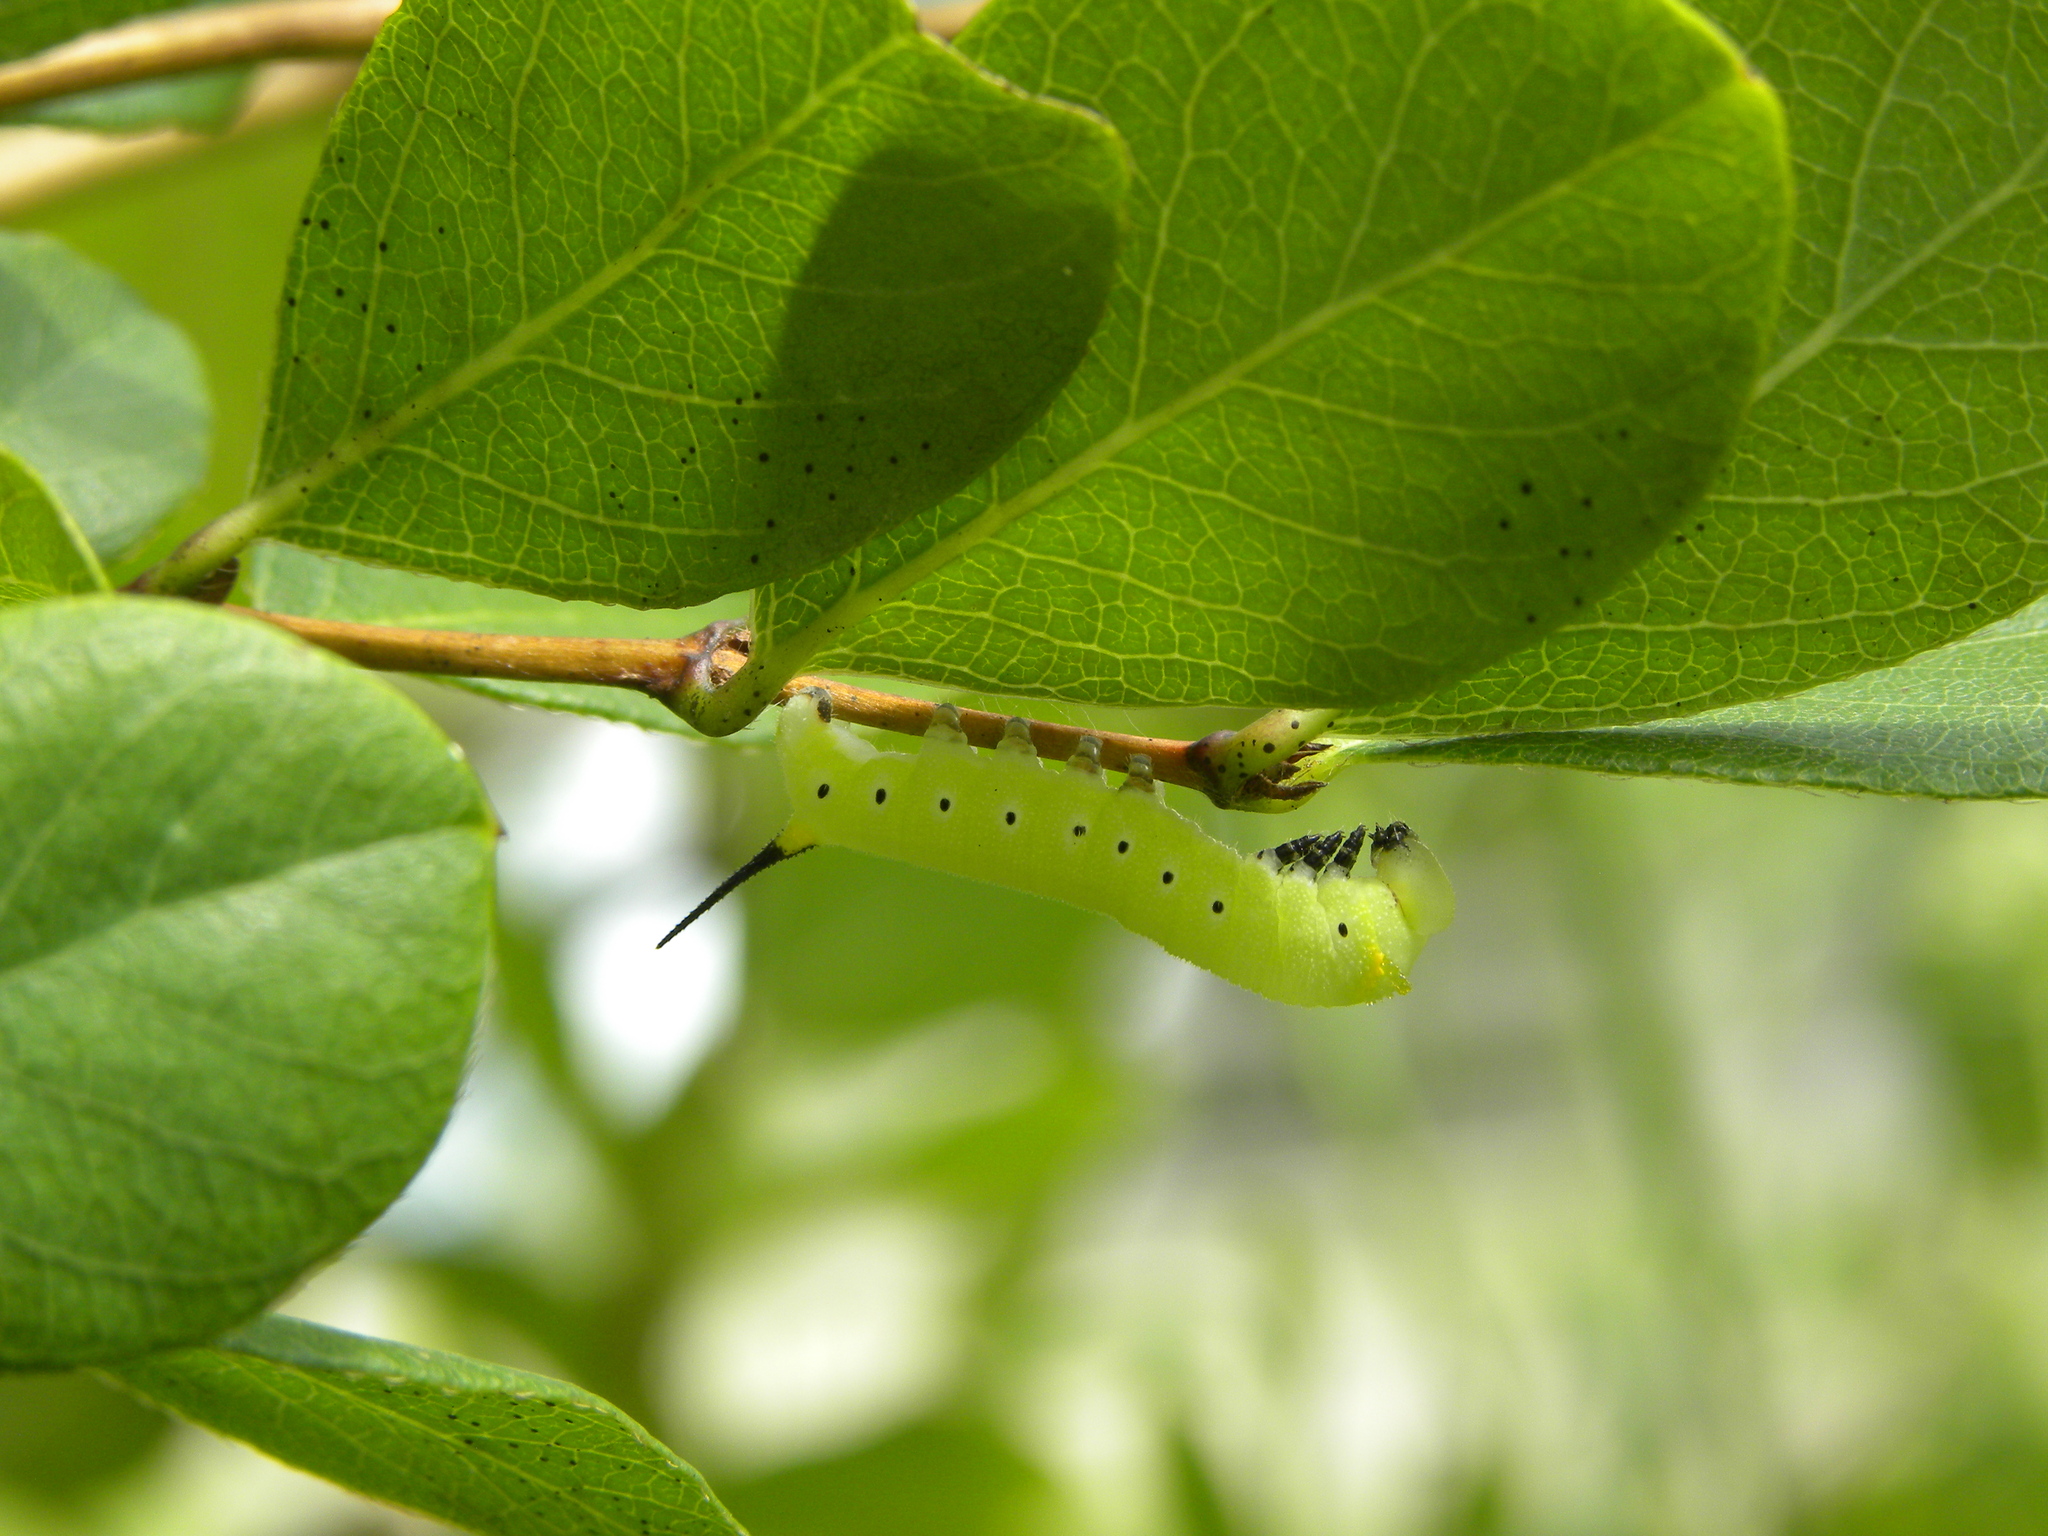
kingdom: Animalia
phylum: Arthropoda
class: Insecta
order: Lepidoptera
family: Sphingidae
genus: Hemaris
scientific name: Hemaris diffinis
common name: Bumblebee moth
